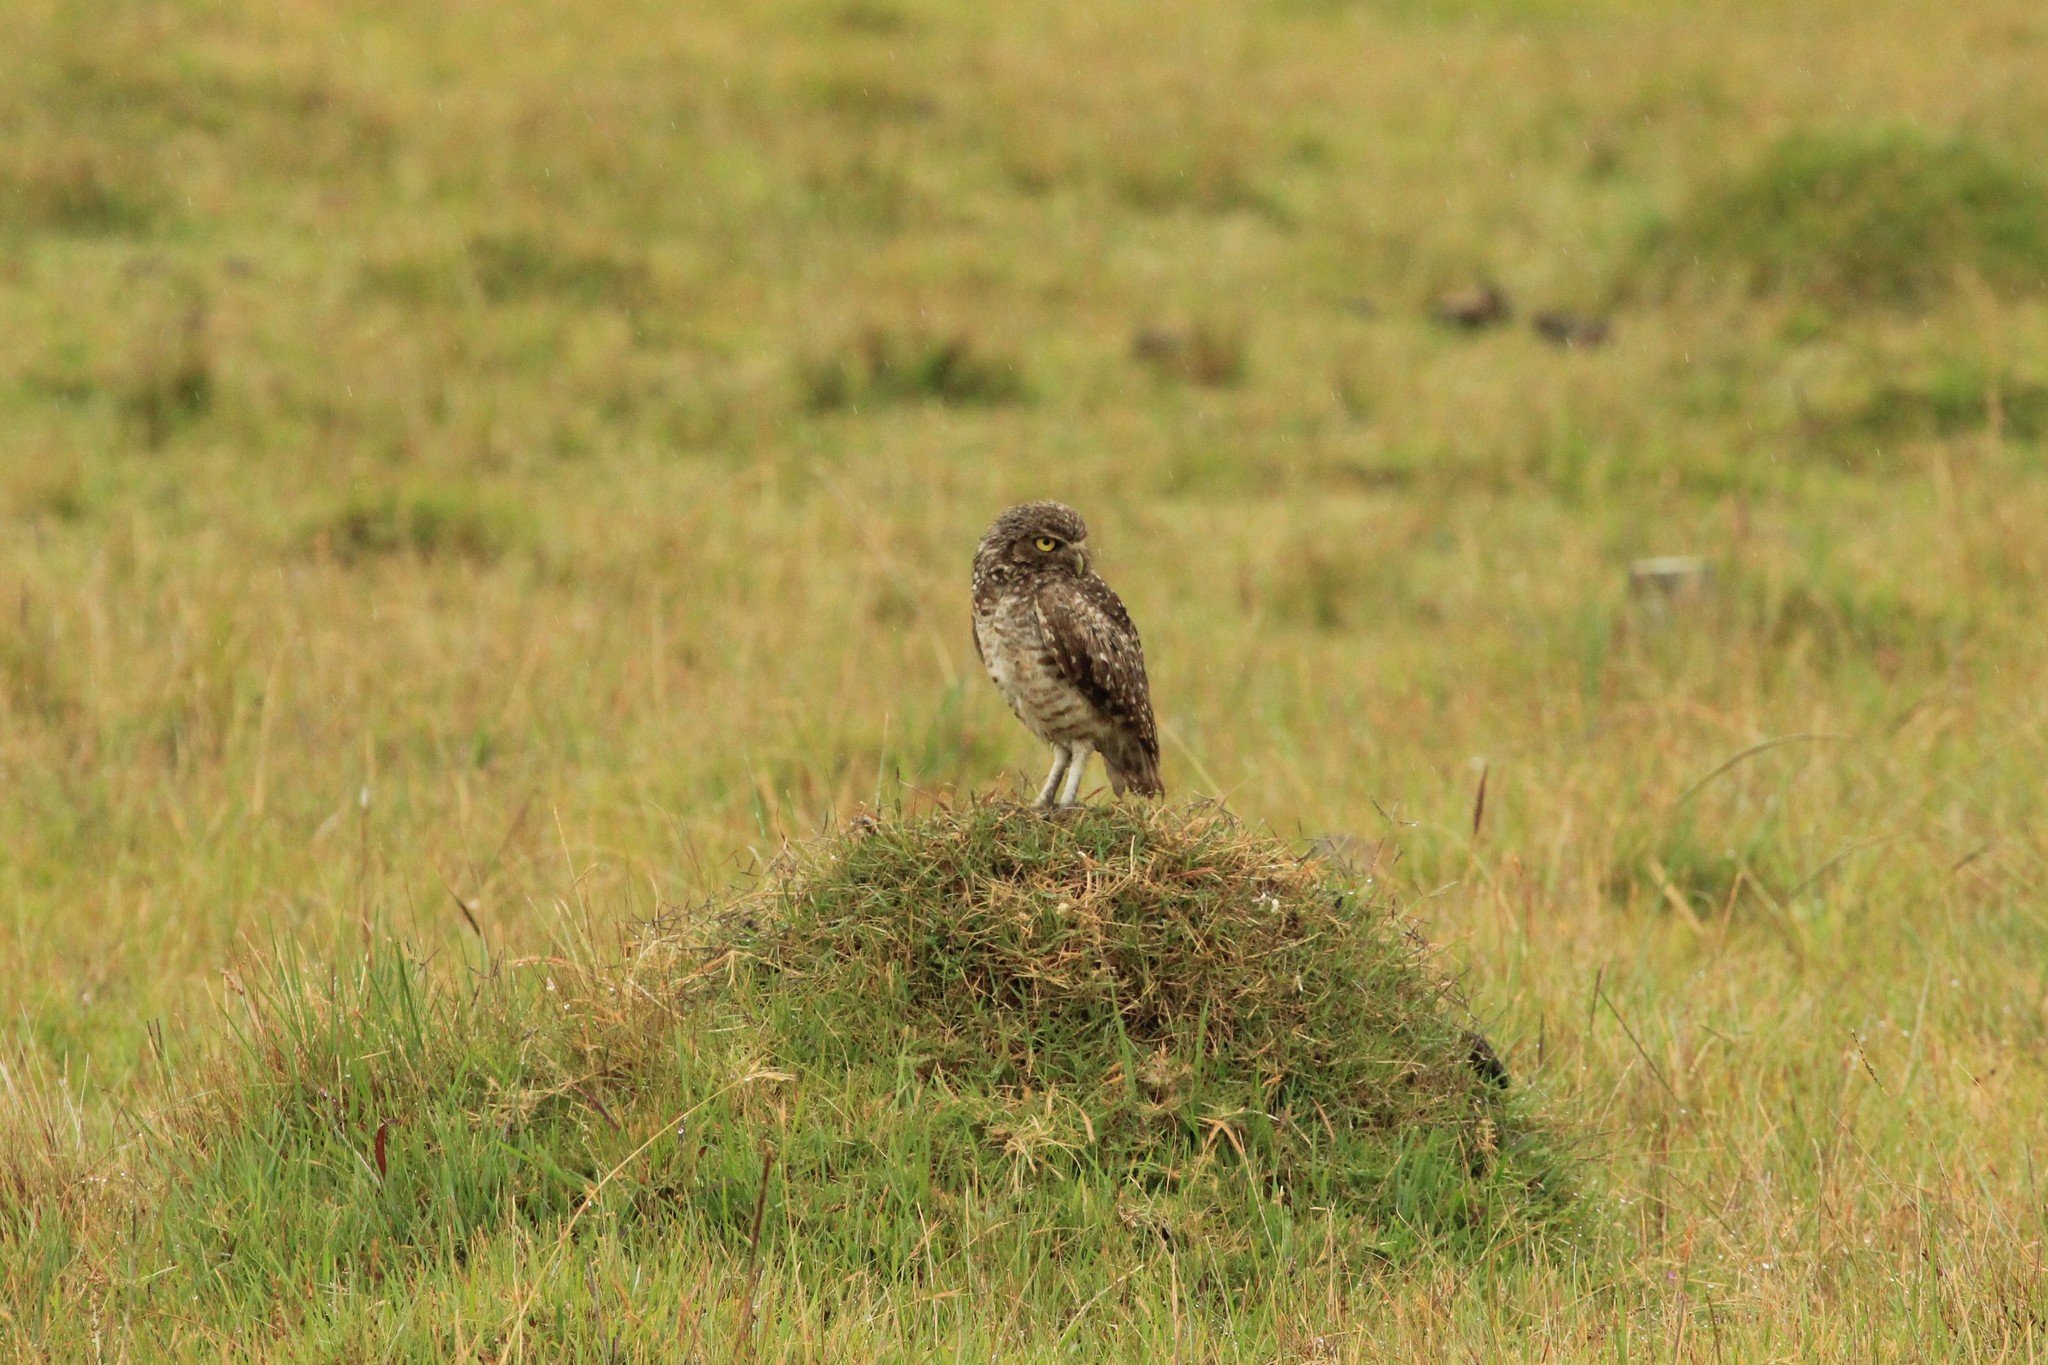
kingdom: Animalia
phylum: Chordata
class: Aves
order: Strigiformes
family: Strigidae
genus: Athene
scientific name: Athene cunicularia
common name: Burrowing owl
